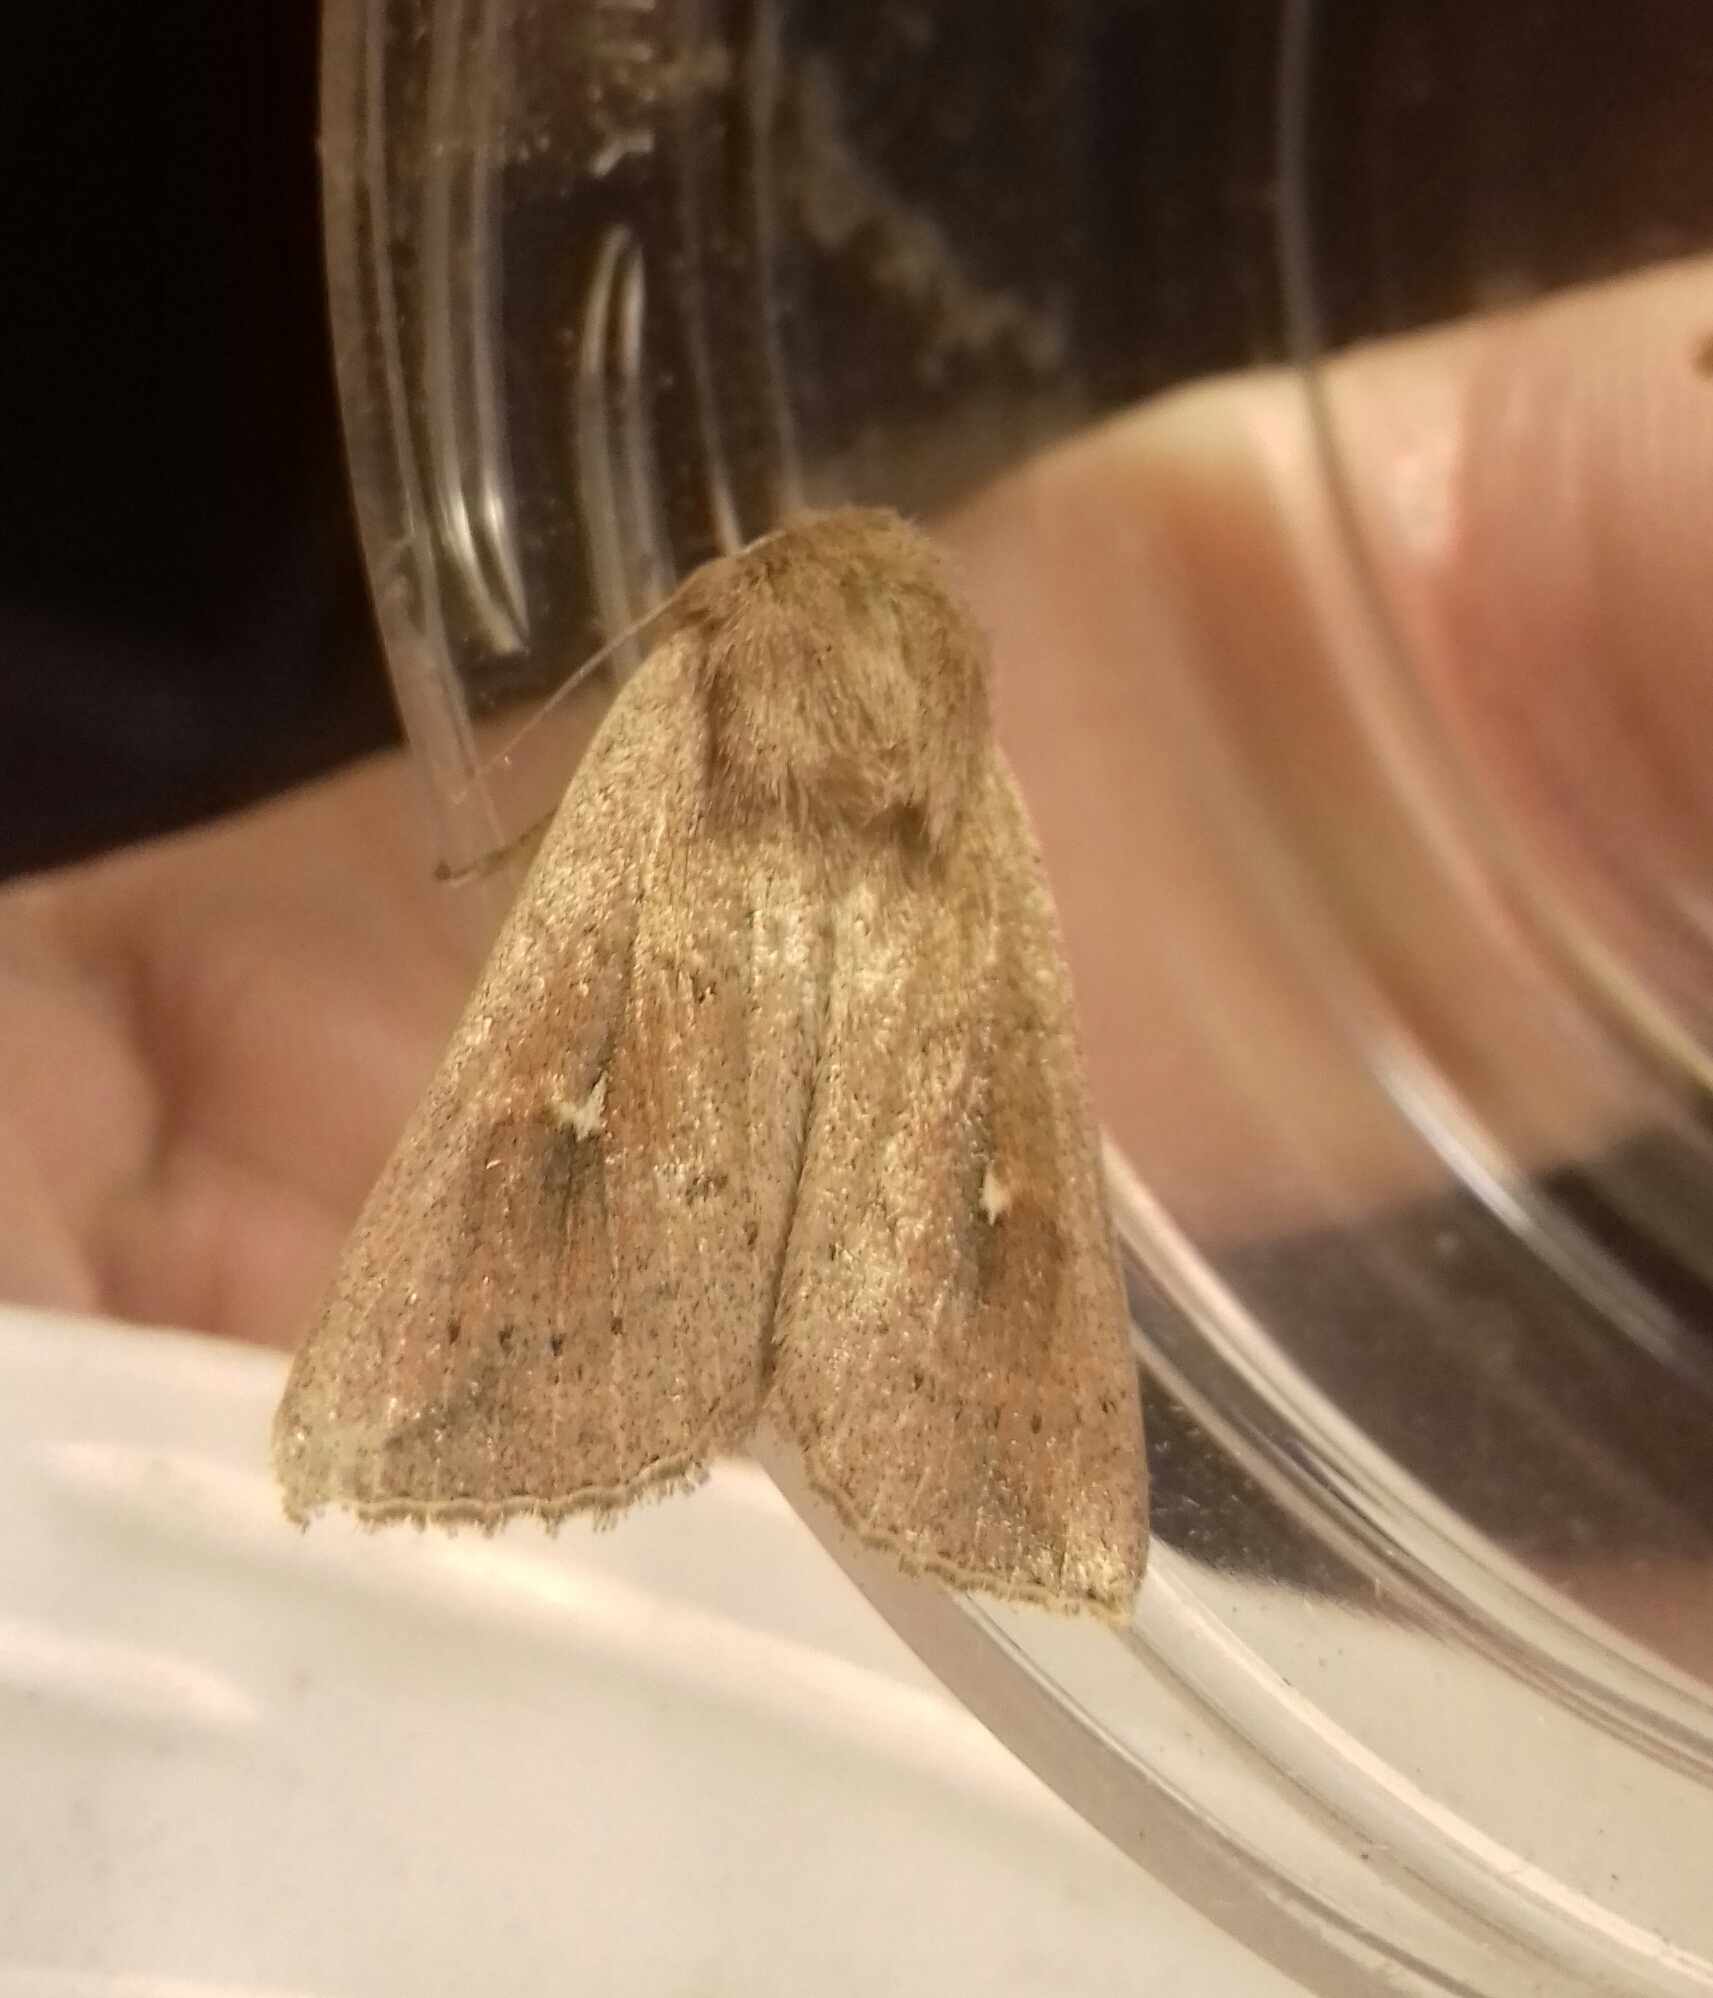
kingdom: Animalia
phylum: Arthropoda
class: Insecta
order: Lepidoptera
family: Noctuidae
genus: Mythimna
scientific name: Mythimna ferrago
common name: Clay
